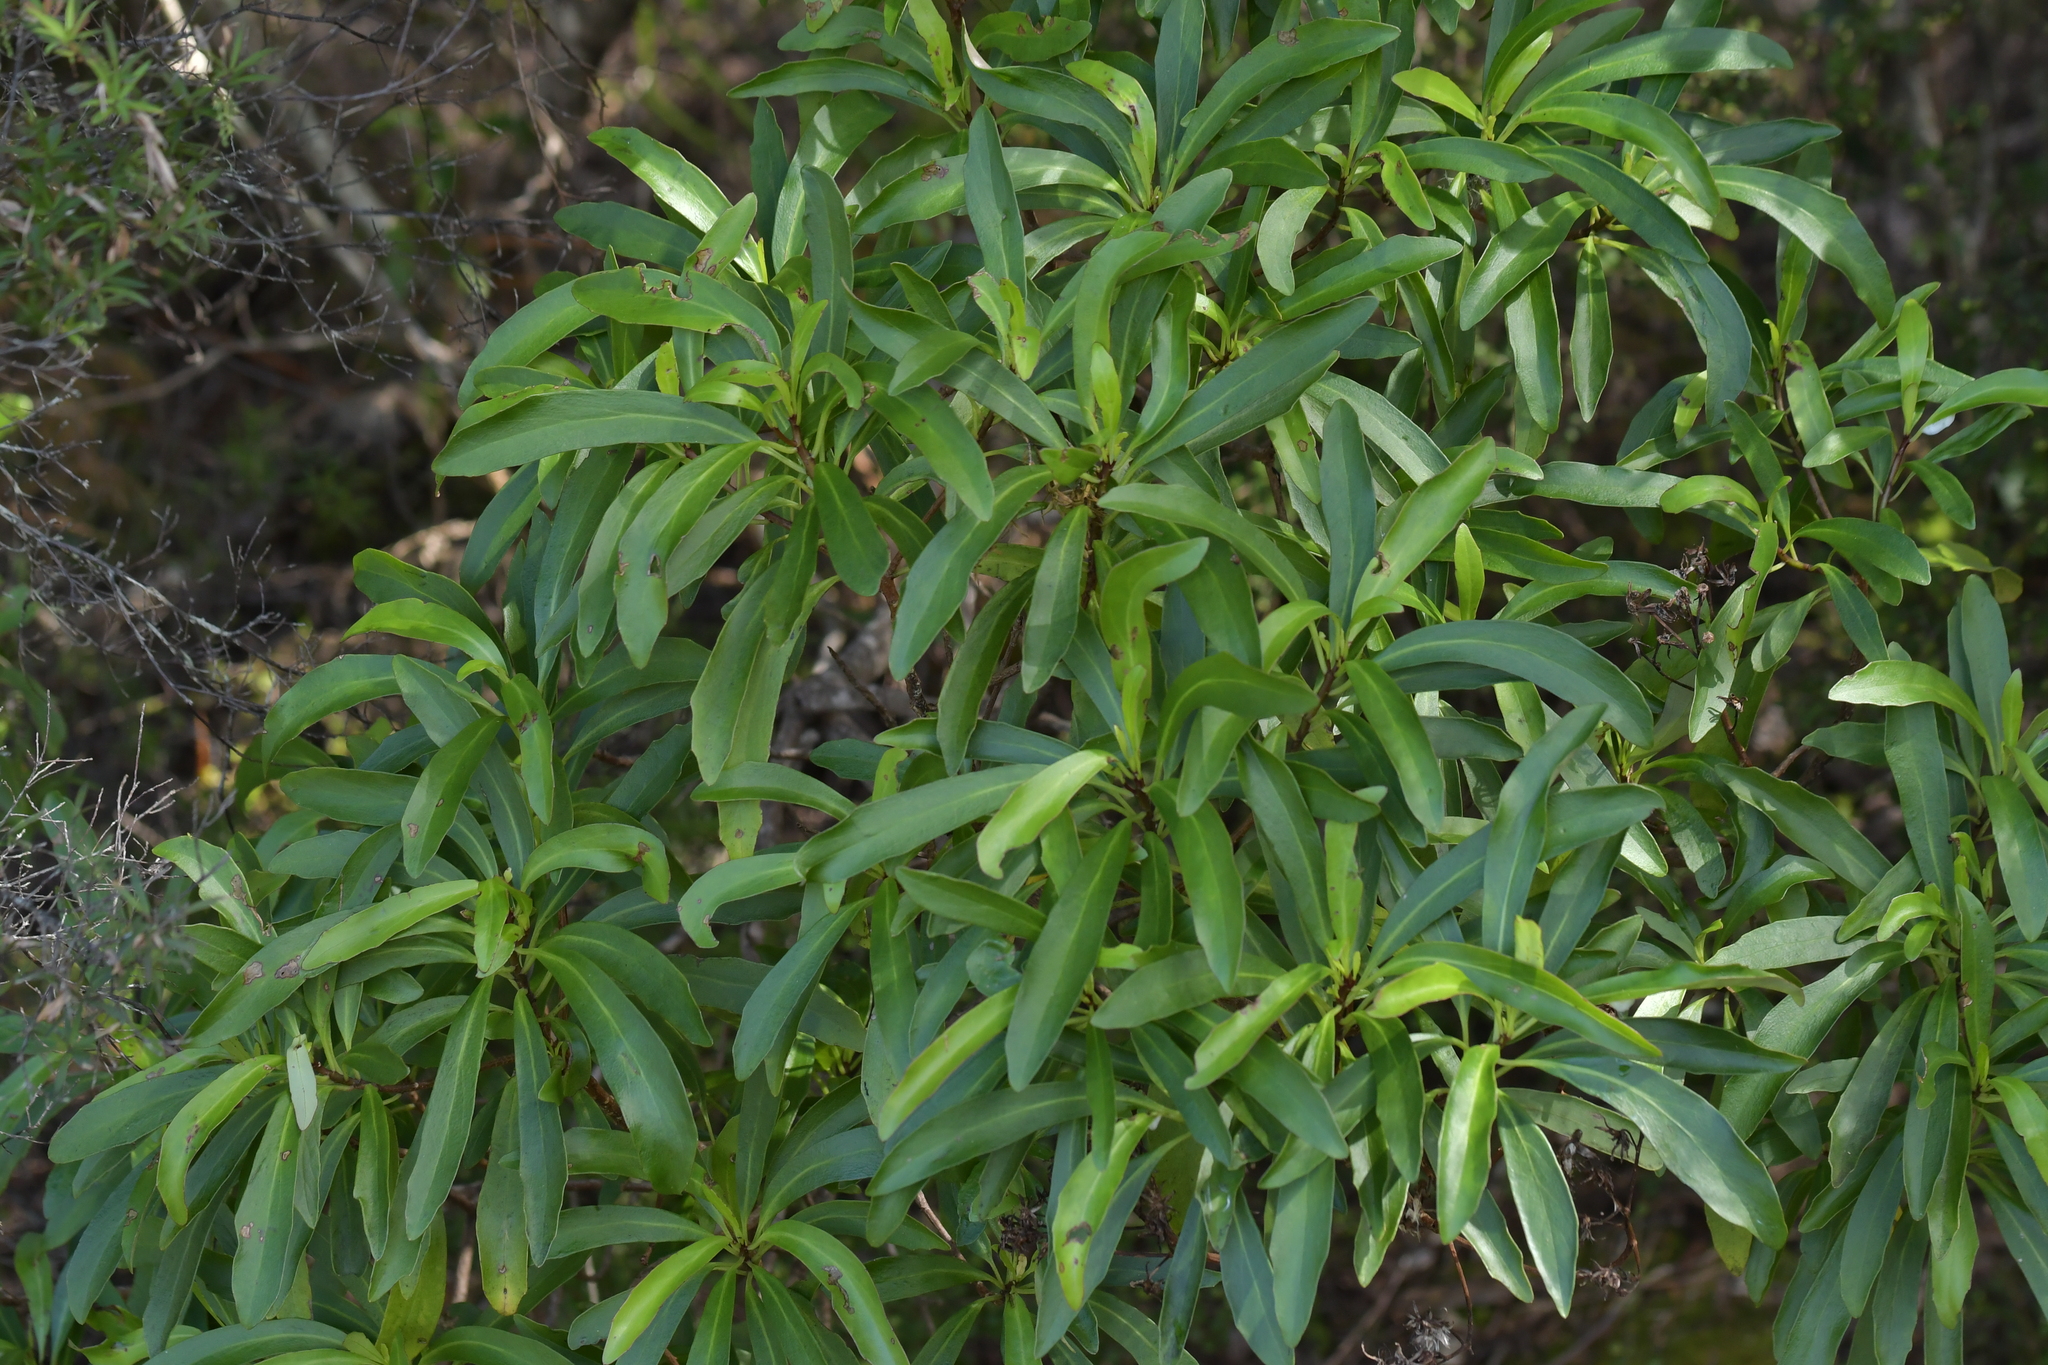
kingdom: Plantae
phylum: Tracheophyta
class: Magnoliopsida
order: Asterales
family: Asteraceae
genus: Brachyglottis
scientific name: Brachyglottis kirkii
